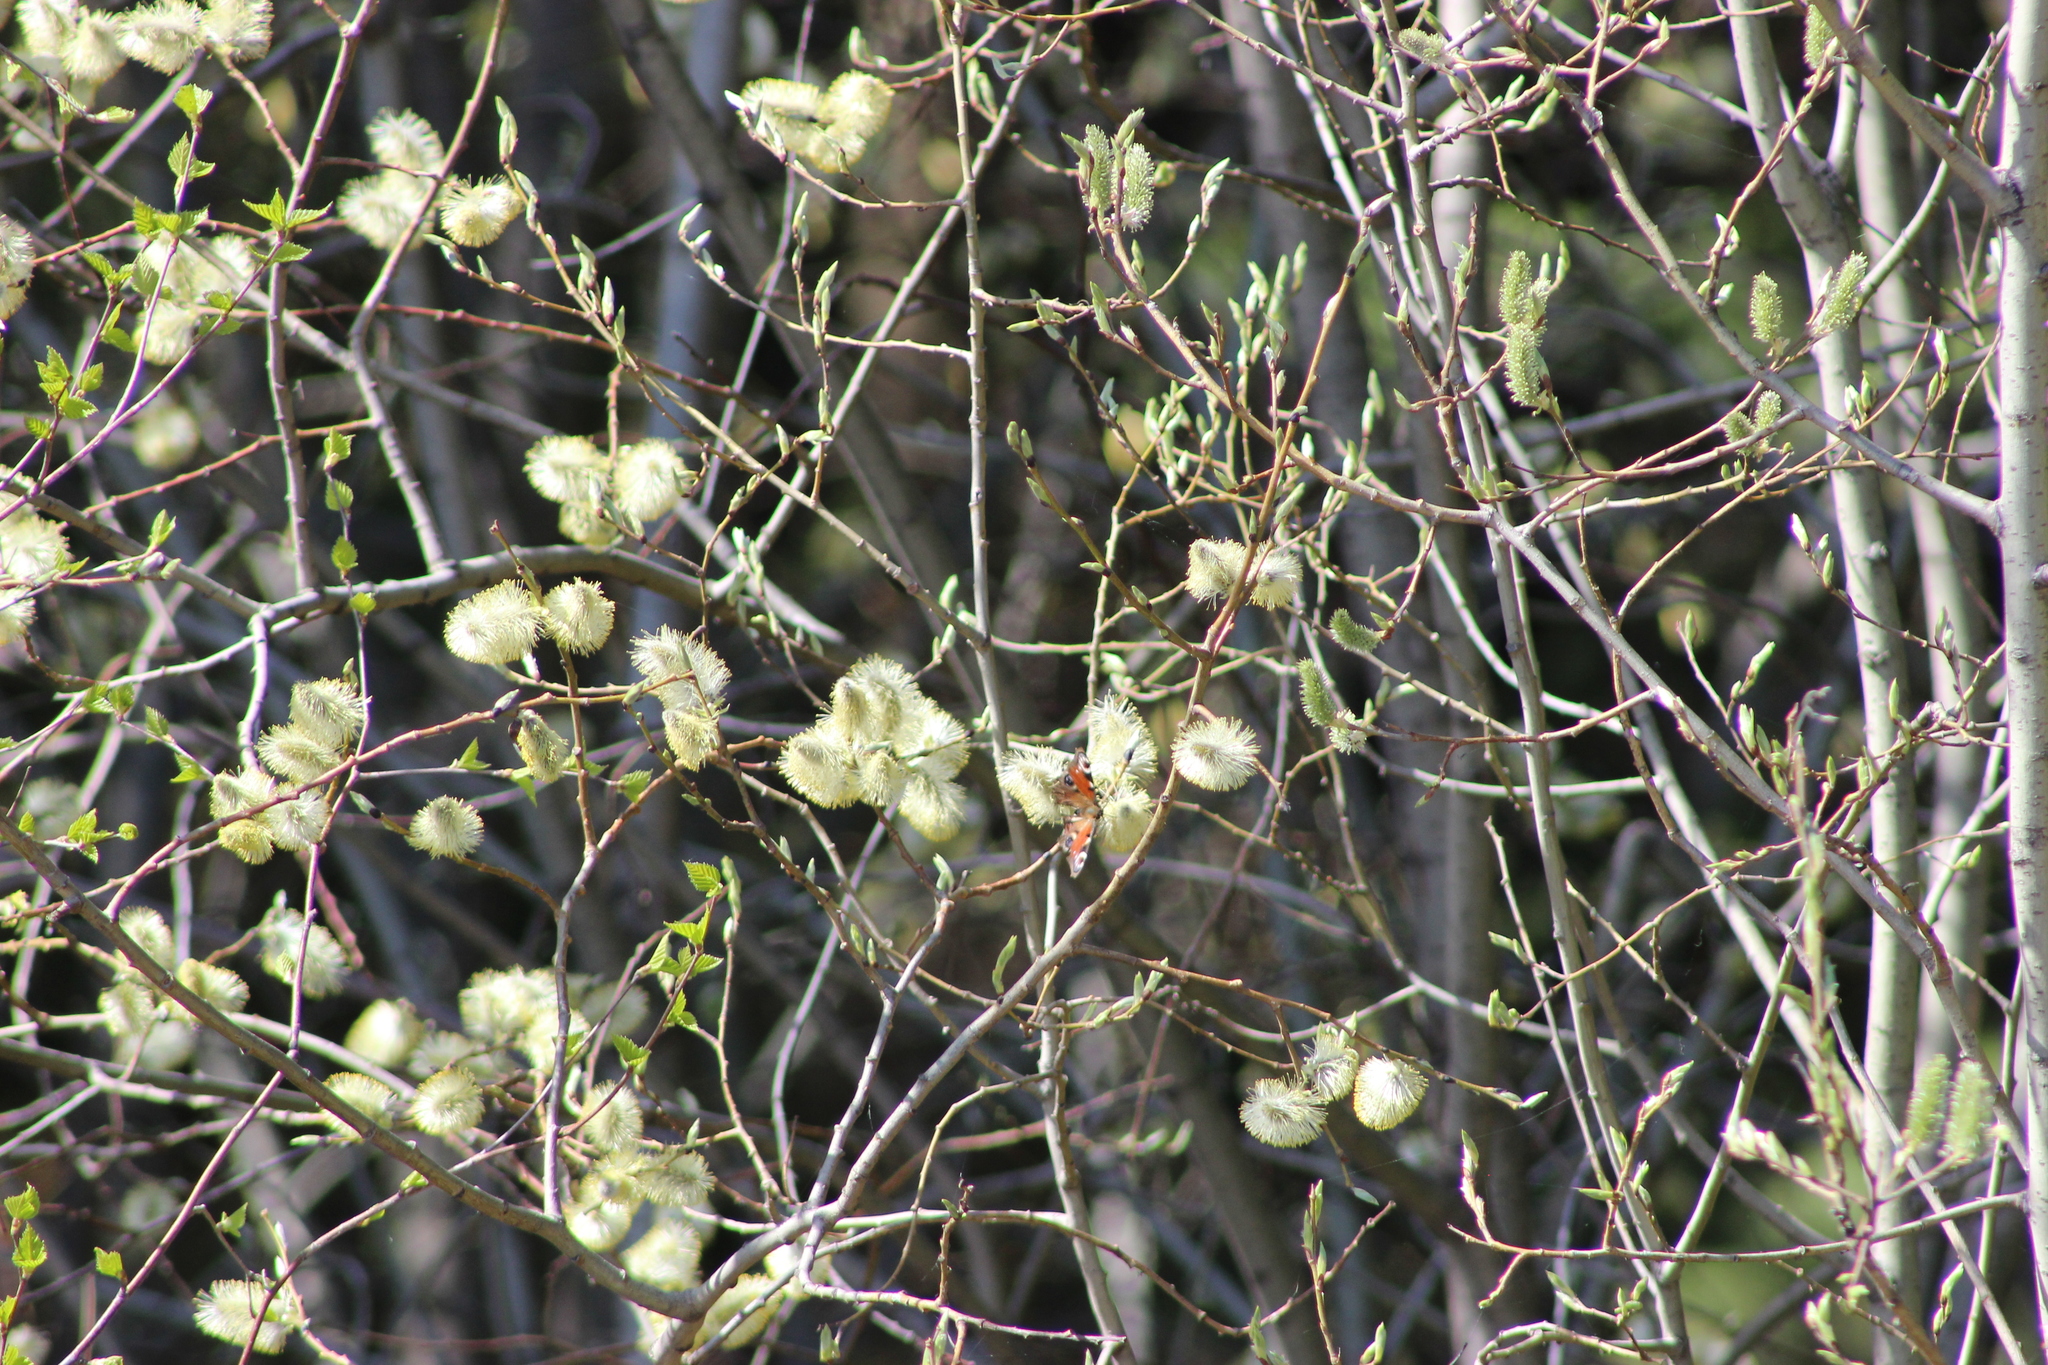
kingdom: Animalia
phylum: Arthropoda
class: Insecta
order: Lepidoptera
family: Nymphalidae
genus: Aglais
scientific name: Aglais io
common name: Peacock
